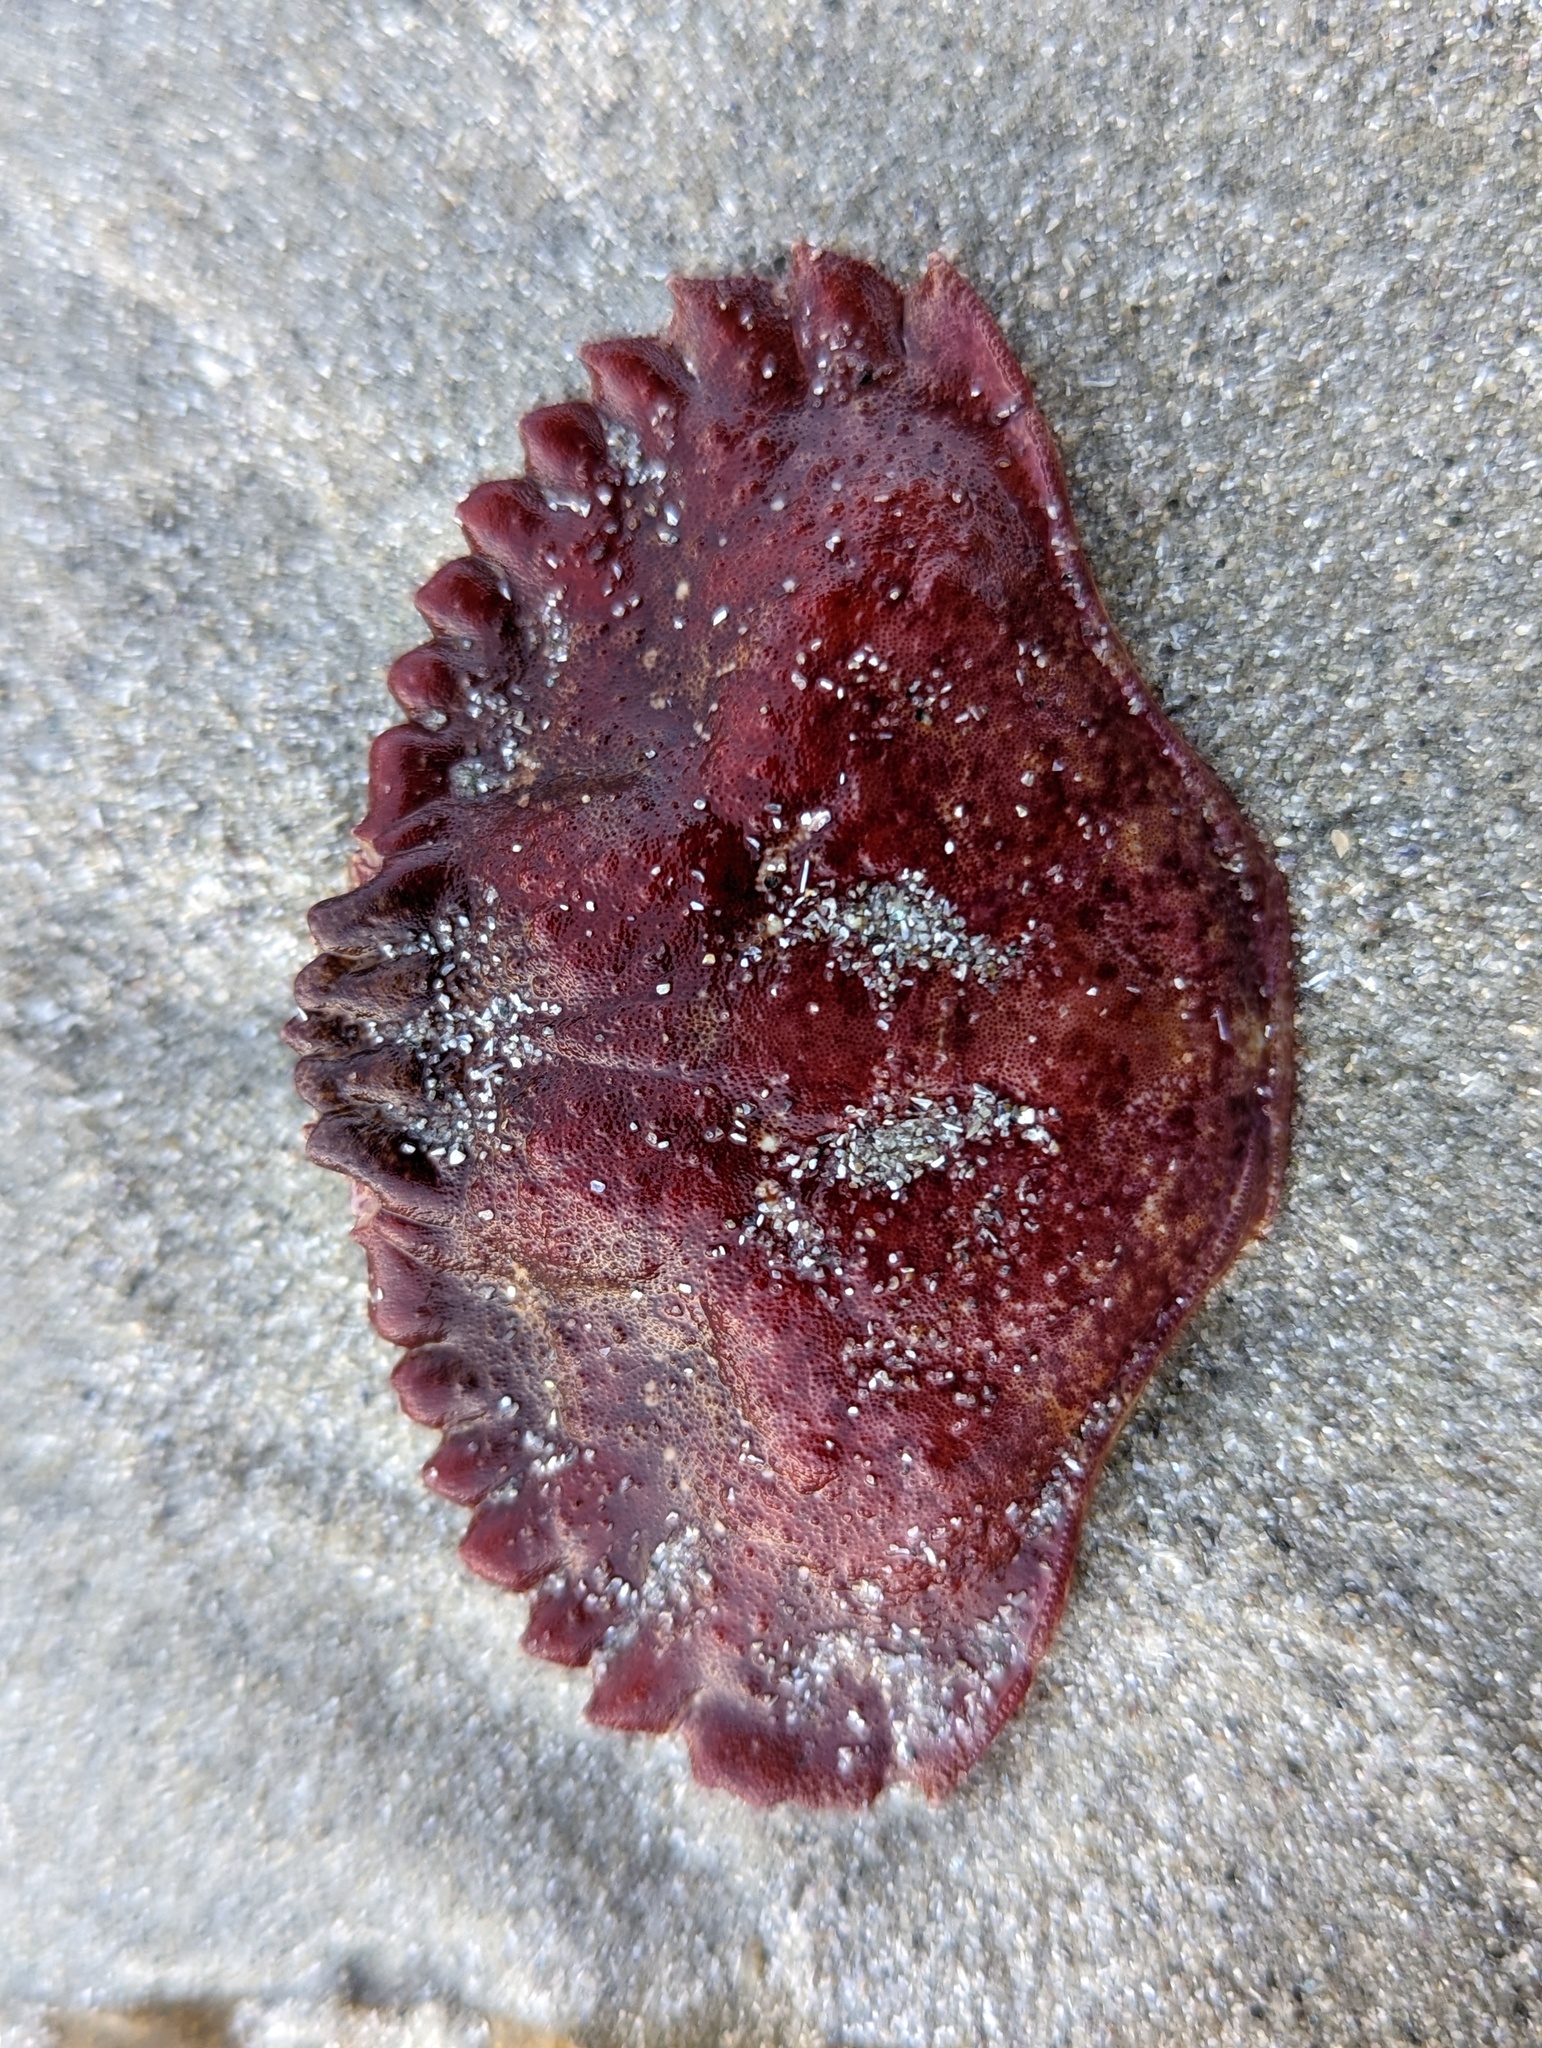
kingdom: Animalia
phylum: Arthropoda
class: Malacostraca
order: Decapoda
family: Cancridae
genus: Cancer
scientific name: Cancer productus
